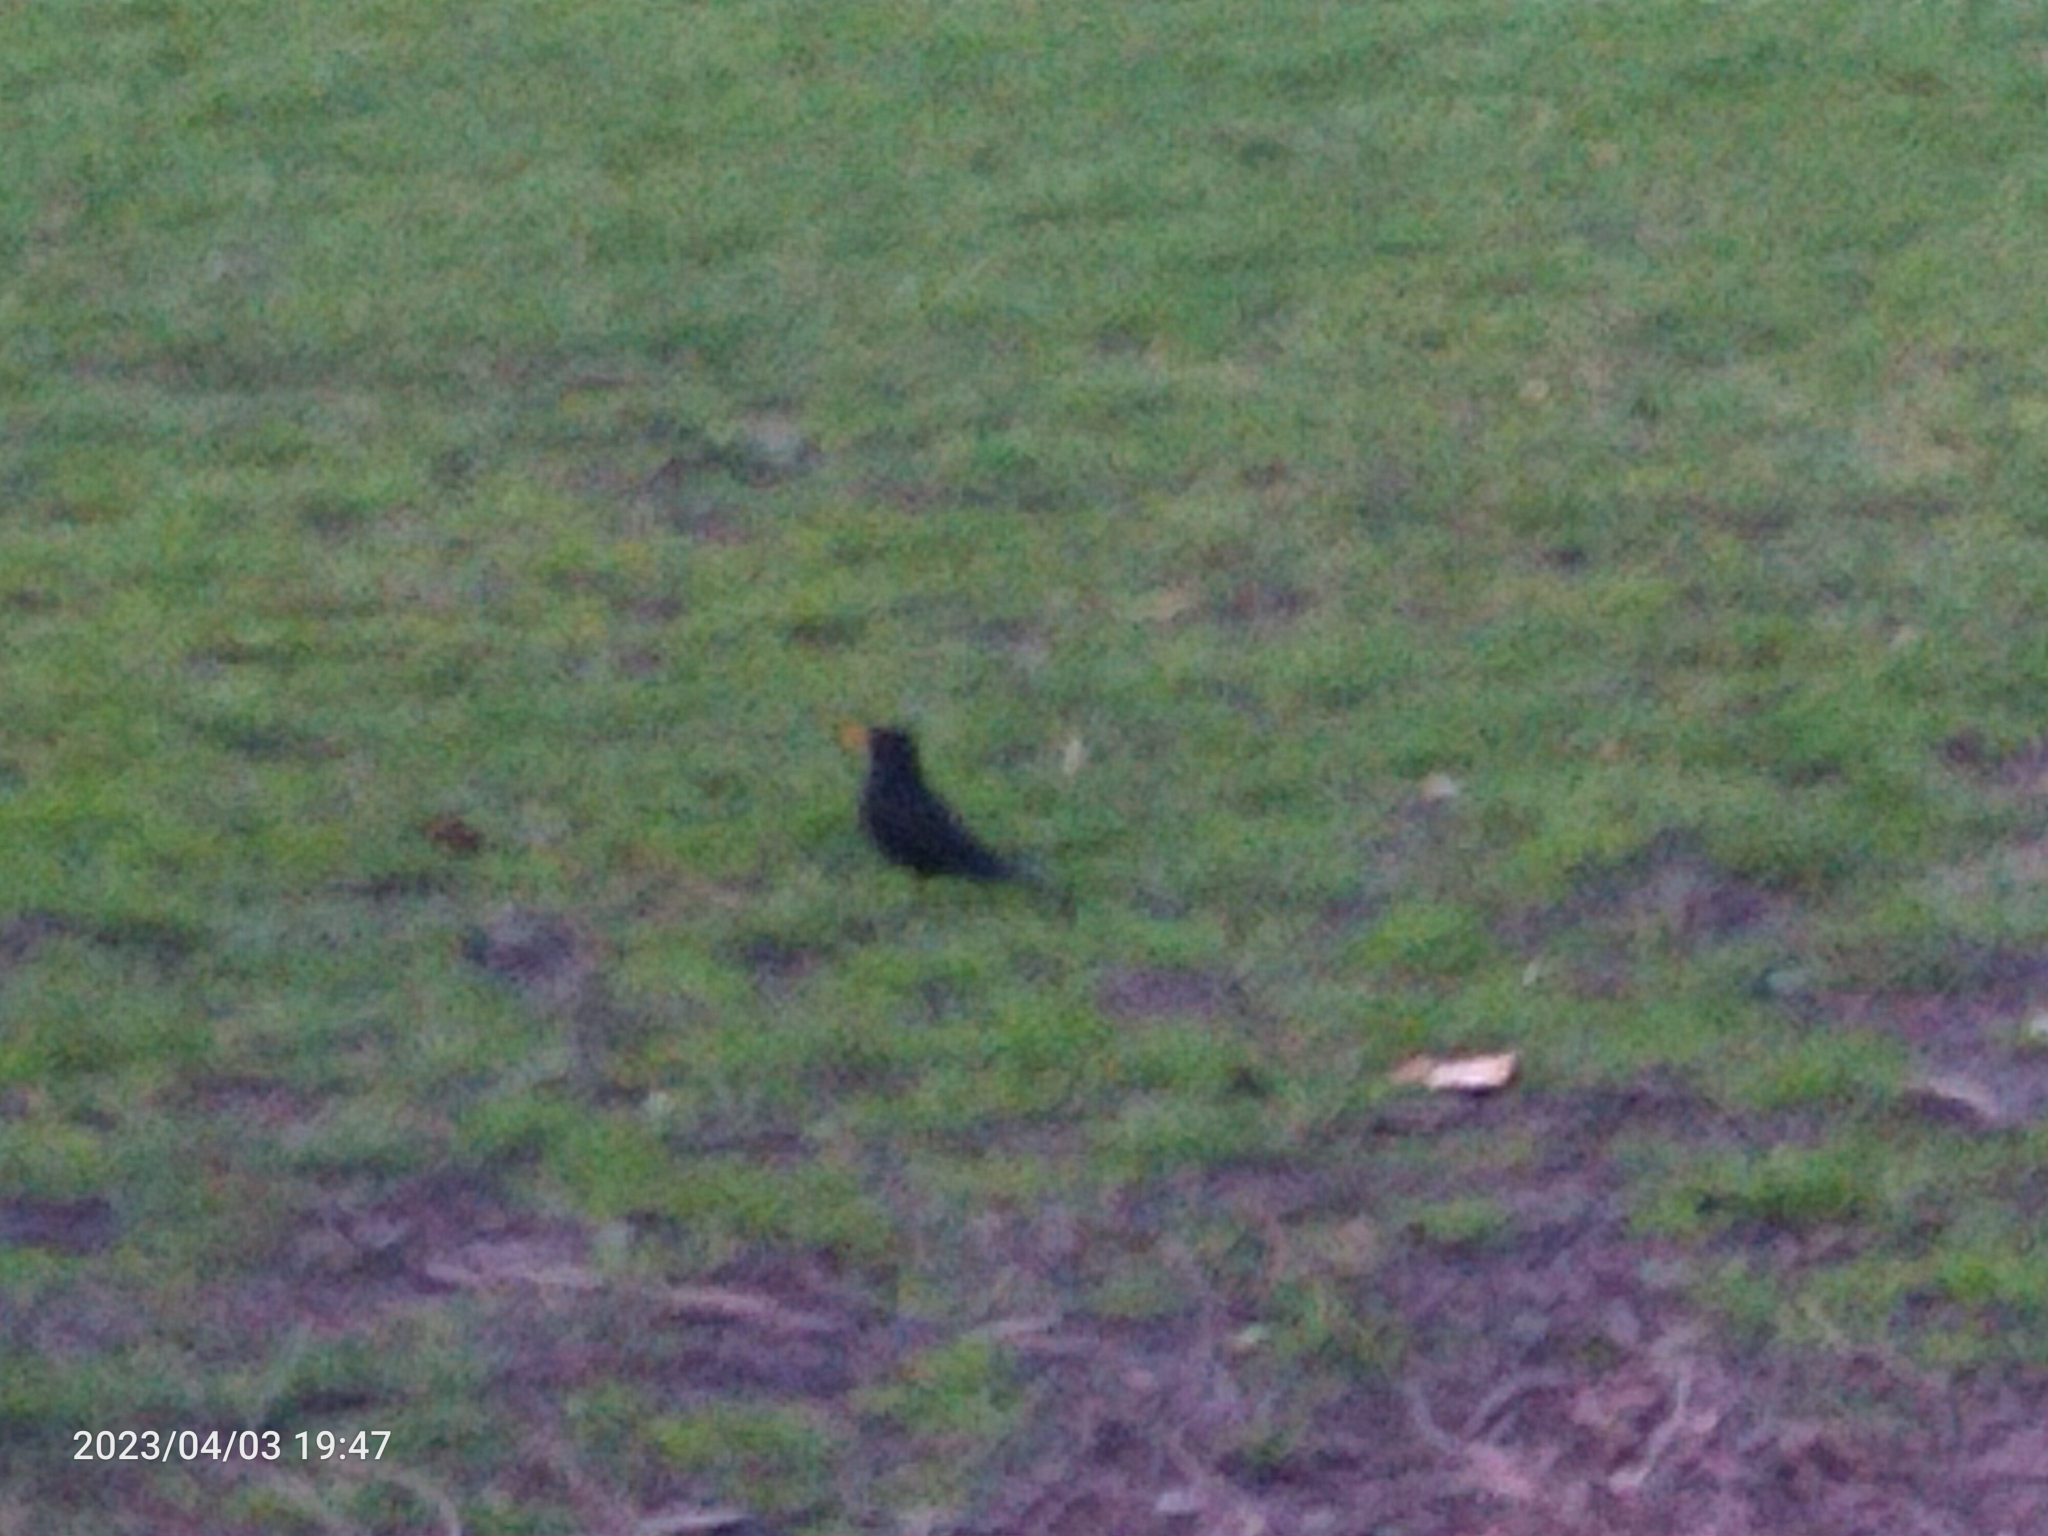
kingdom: Animalia
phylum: Chordata
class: Aves
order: Passeriformes
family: Turdidae
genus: Turdus
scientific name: Turdus merula
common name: Common blackbird
